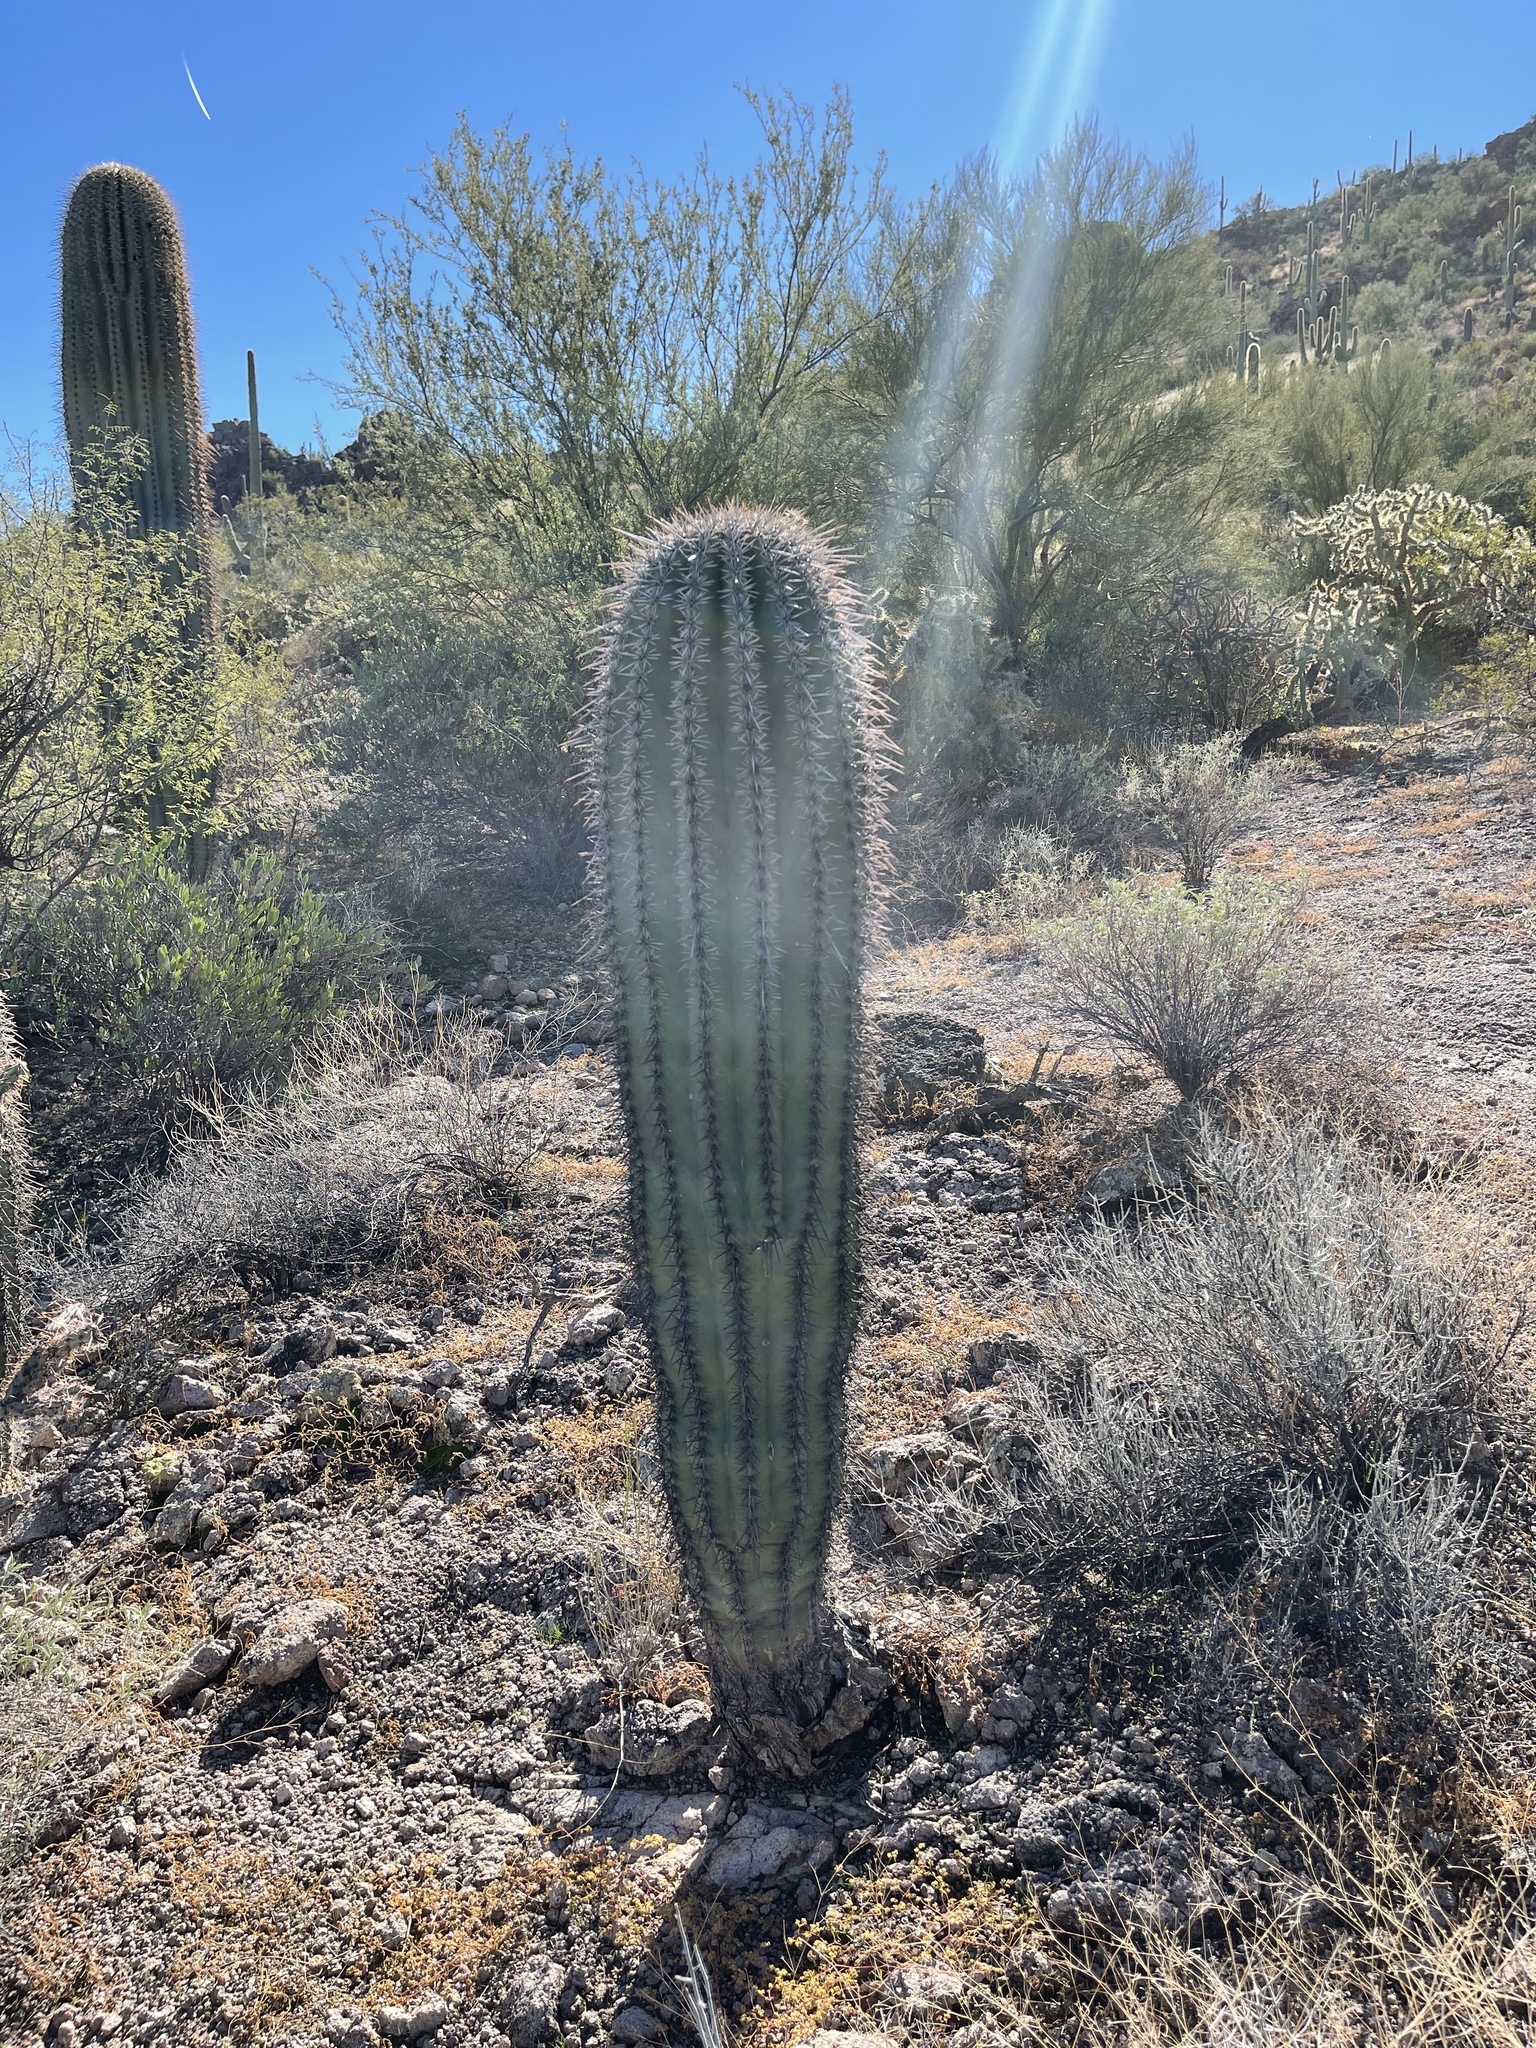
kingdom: Plantae
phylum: Tracheophyta
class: Magnoliopsida
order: Caryophyllales
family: Cactaceae
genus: Carnegiea
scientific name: Carnegiea gigantea
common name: Saguaro
